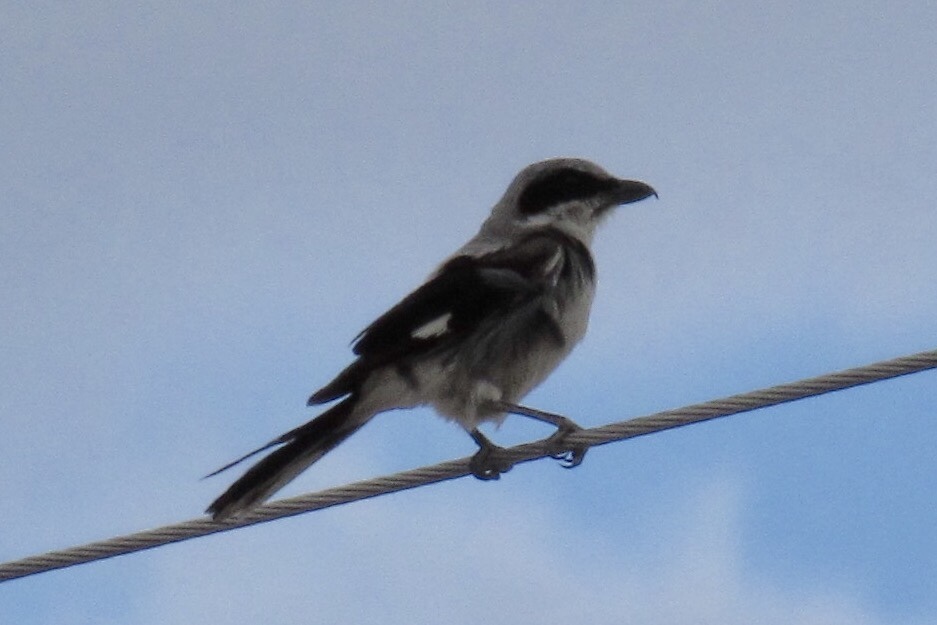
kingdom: Animalia
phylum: Chordata
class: Aves
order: Passeriformes
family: Laniidae
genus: Lanius
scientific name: Lanius ludovicianus
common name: Loggerhead shrike
